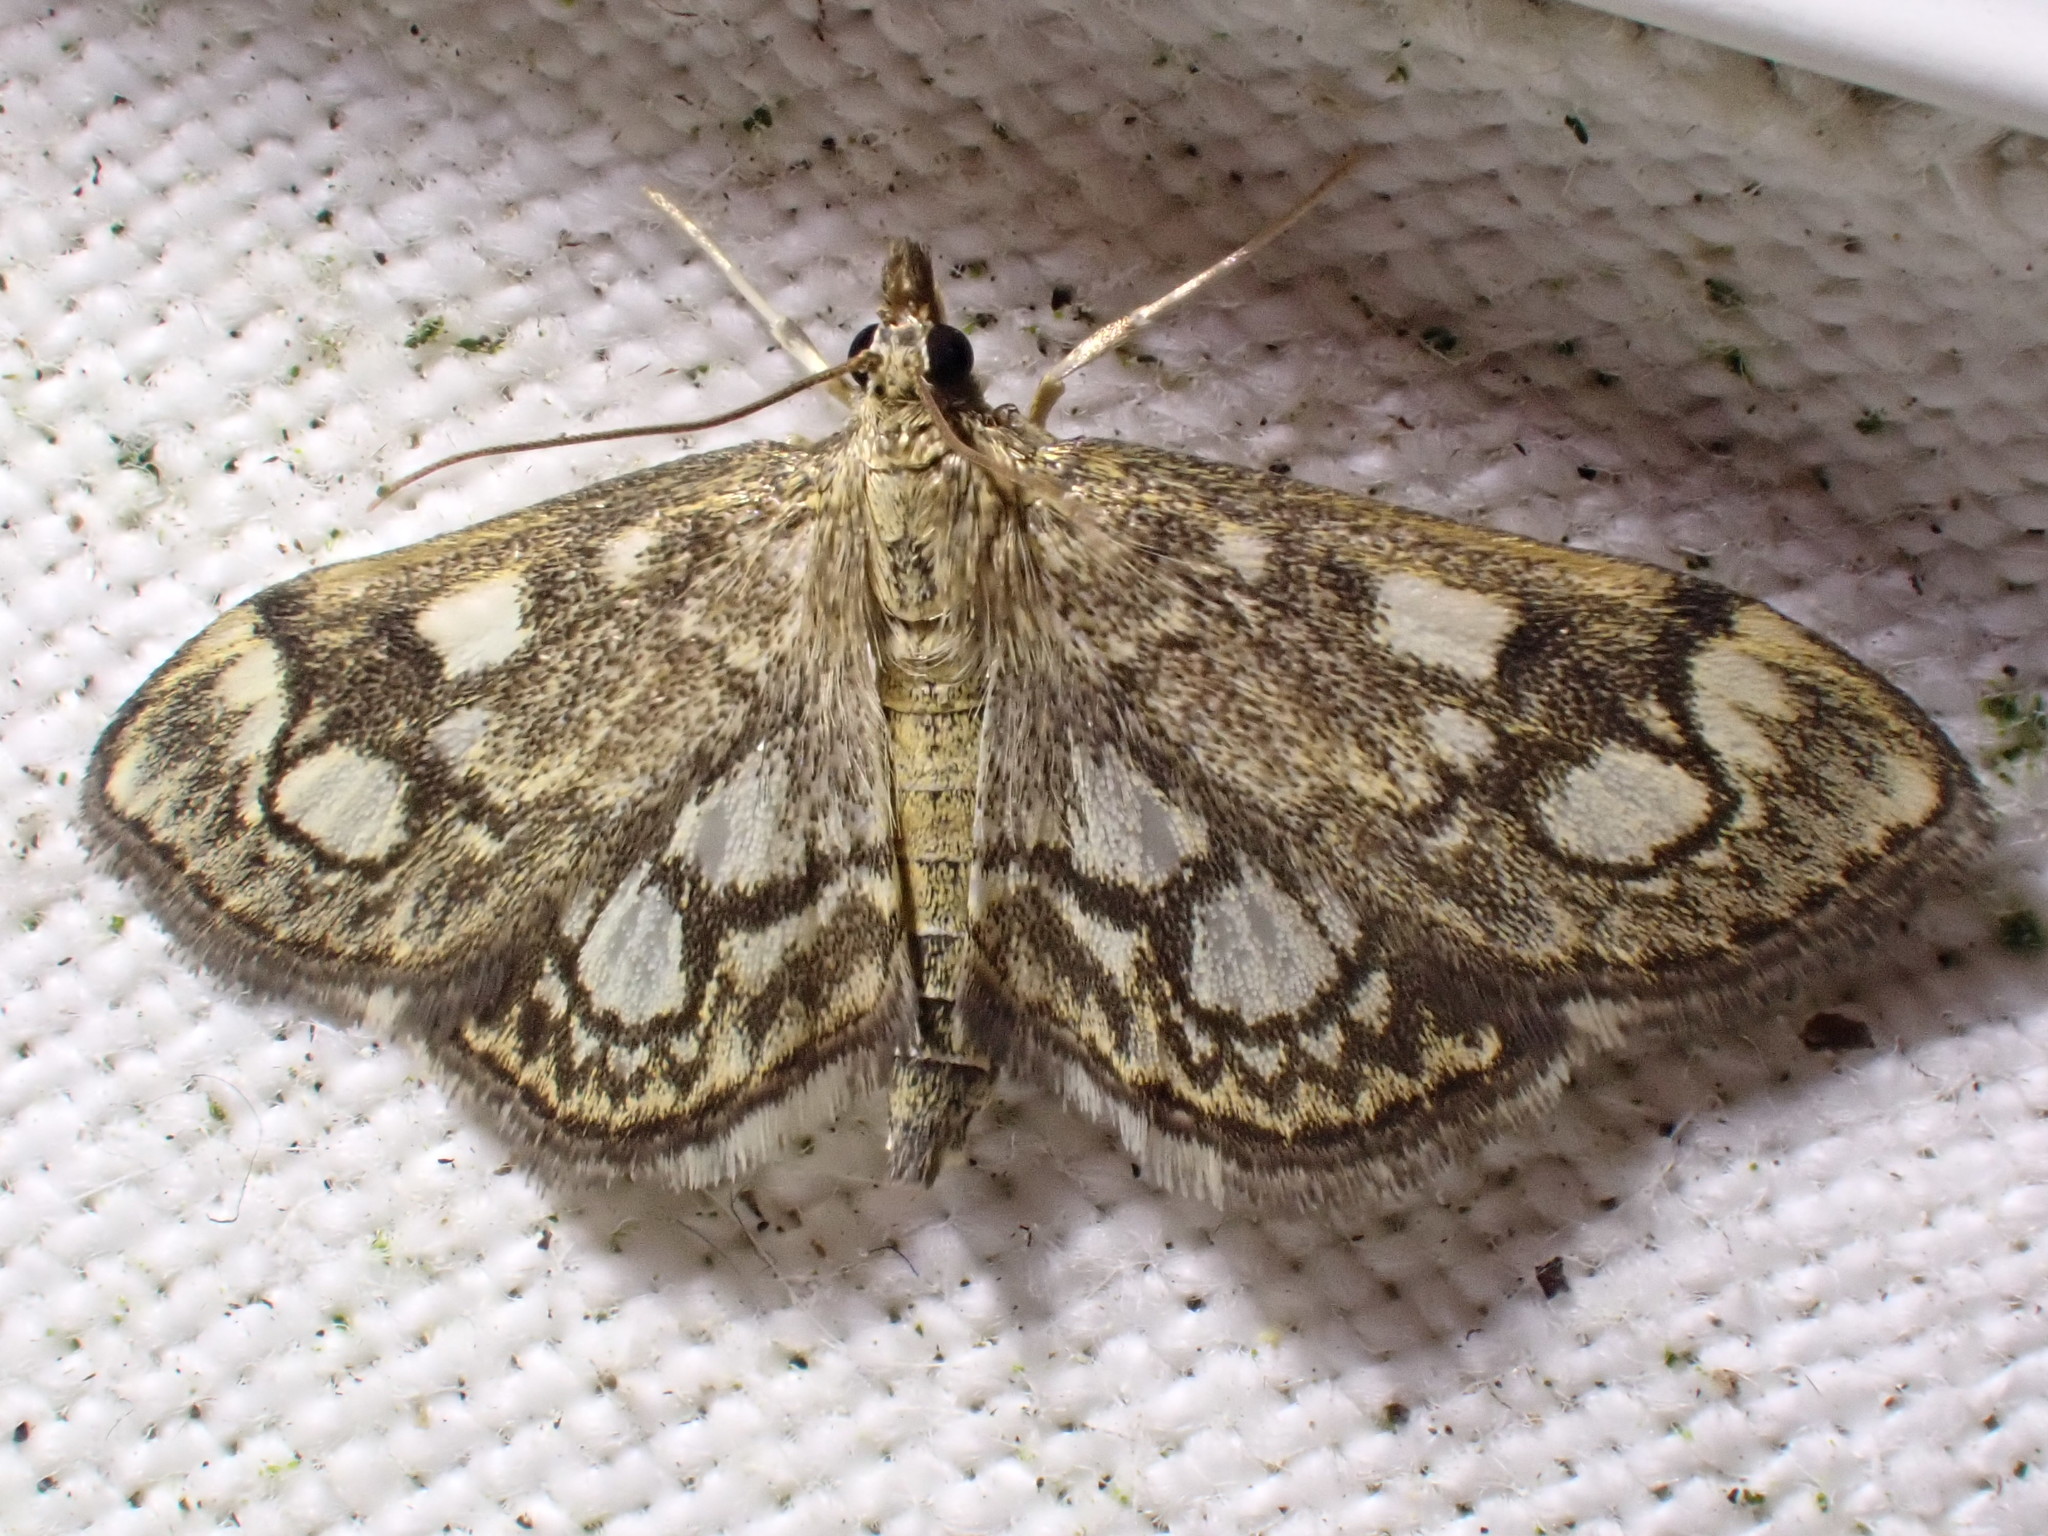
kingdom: Animalia
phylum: Arthropoda
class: Insecta
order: Lepidoptera
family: Crambidae
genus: Anania
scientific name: Anania coronata
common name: Elder pearl
